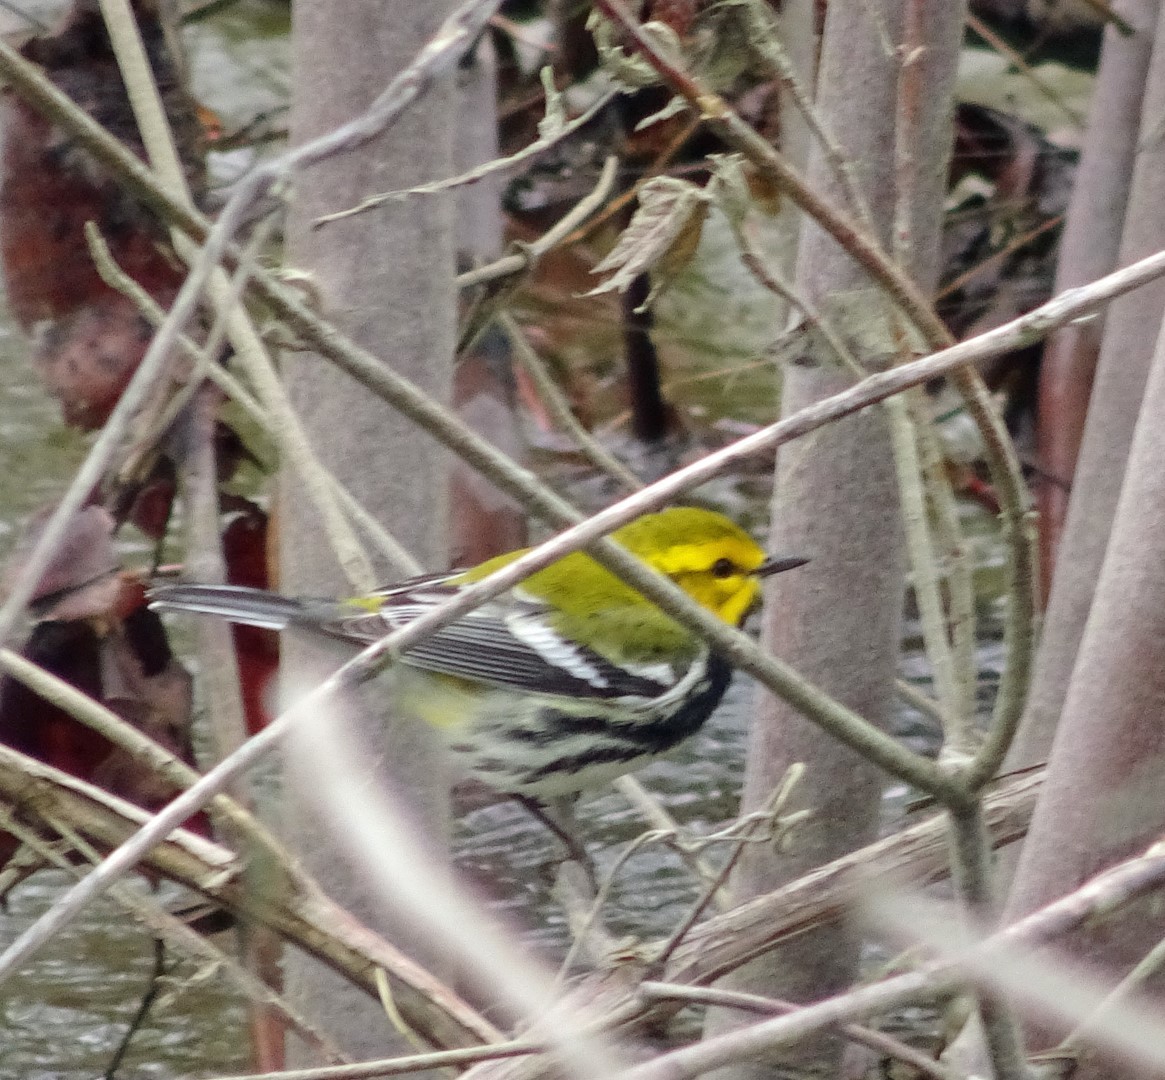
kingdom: Animalia
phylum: Chordata
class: Aves
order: Passeriformes
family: Parulidae
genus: Setophaga
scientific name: Setophaga virens
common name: Black-throated green warbler
